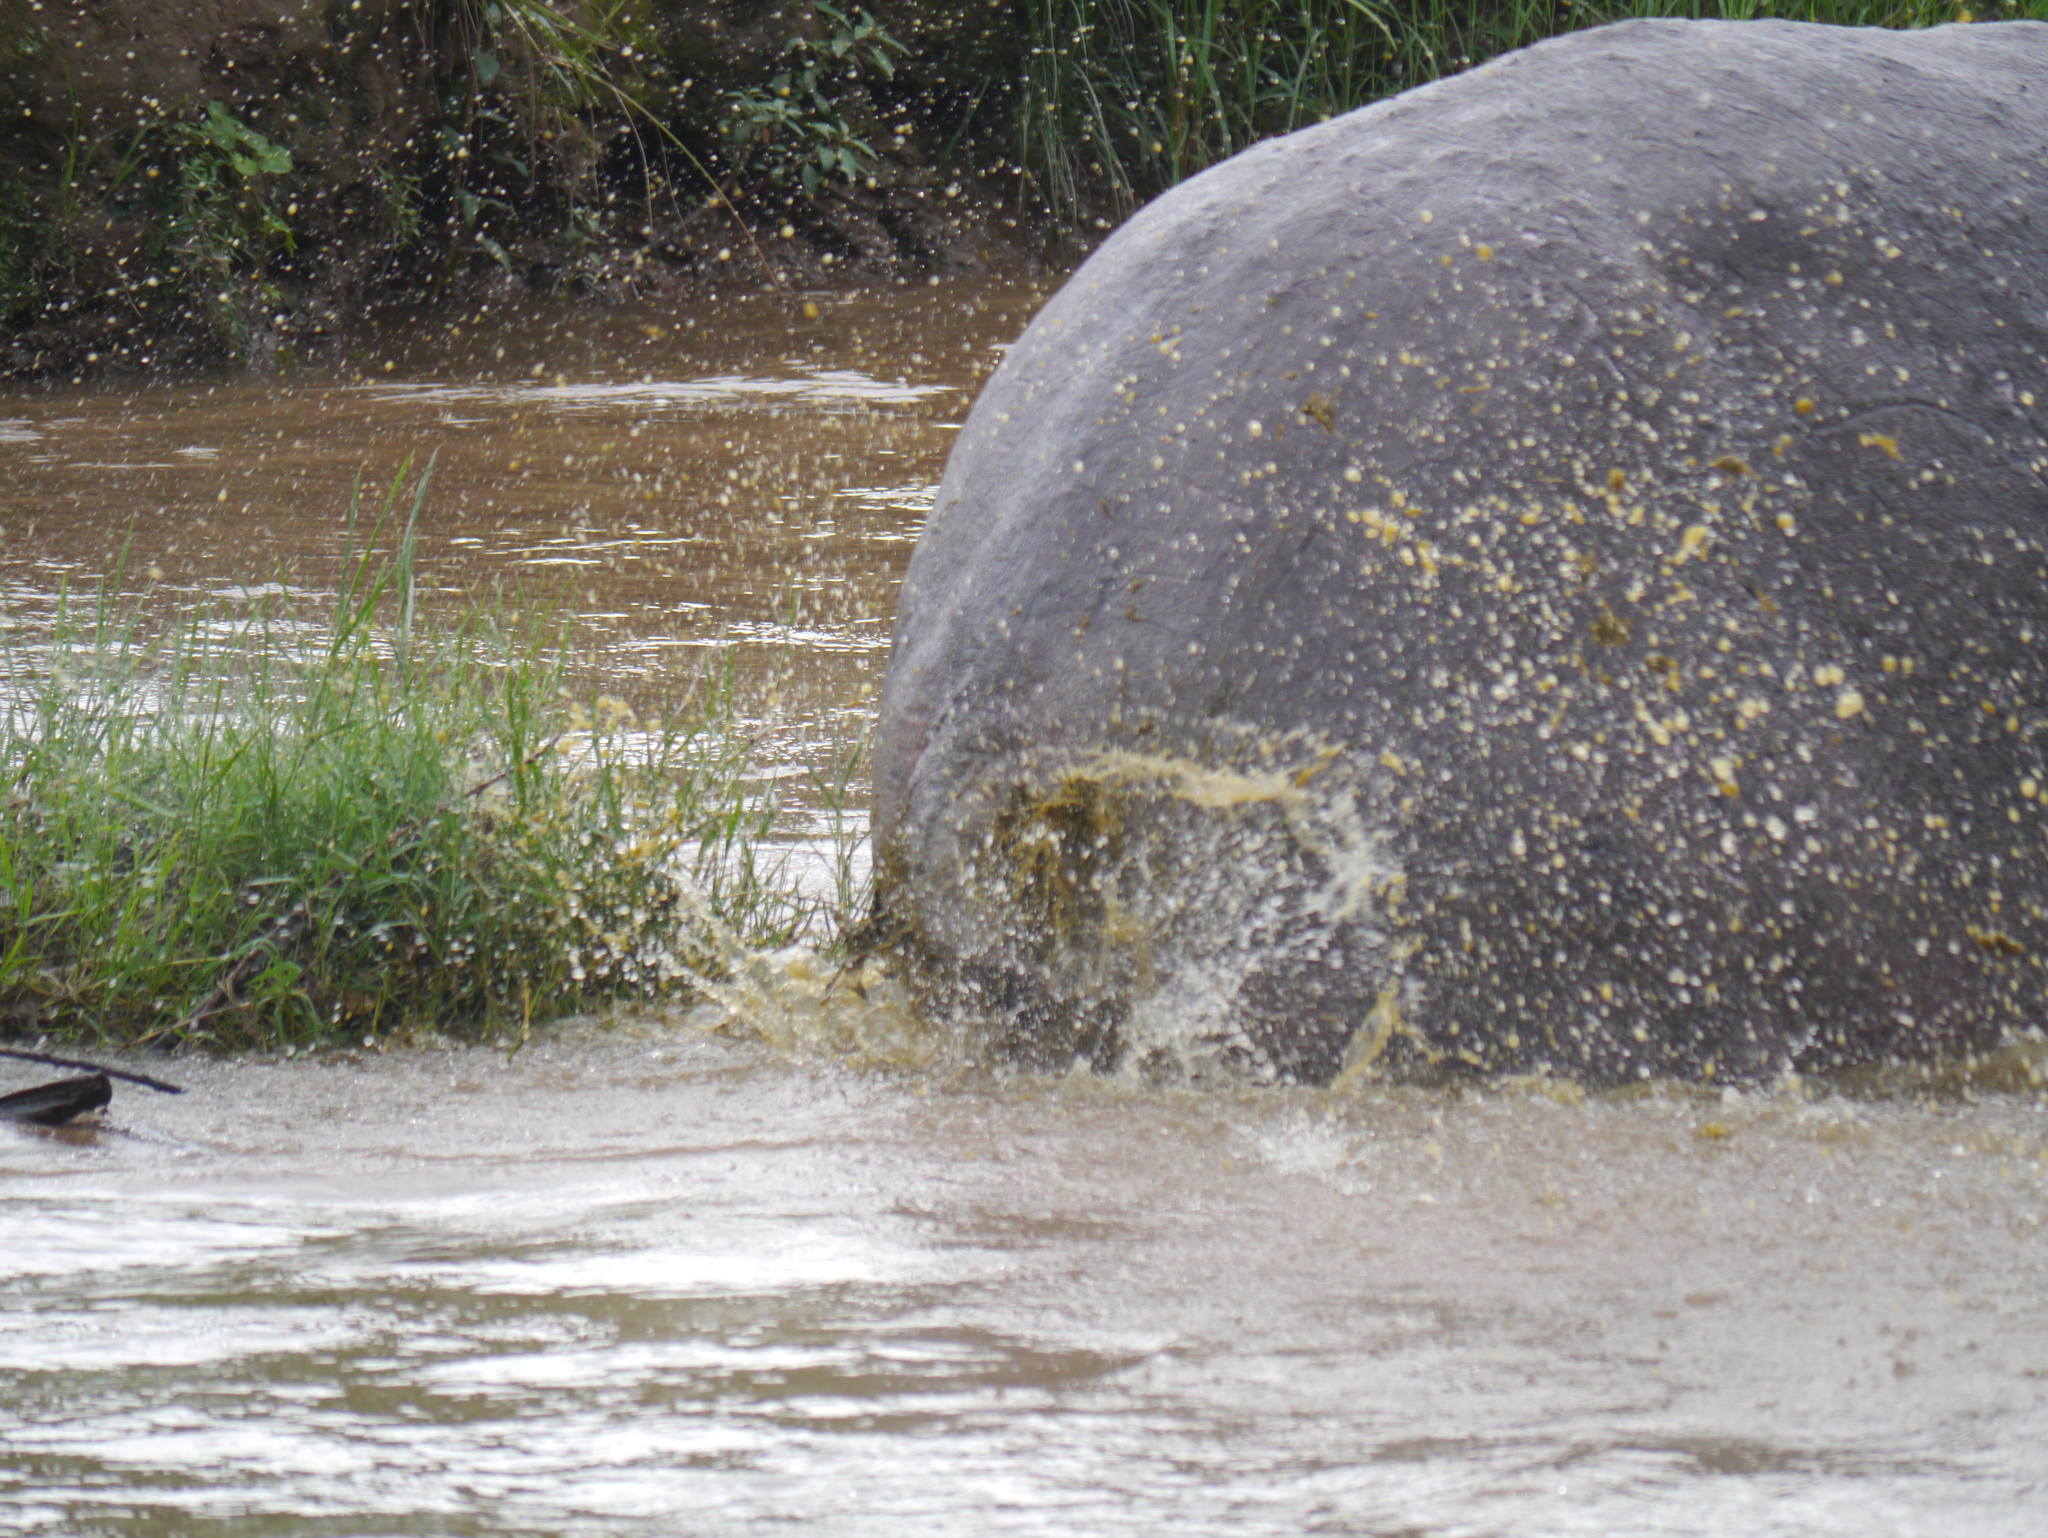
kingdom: Animalia
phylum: Chordata
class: Mammalia
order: Artiodactyla
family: Hippopotamidae
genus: Hippopotamus
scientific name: Hippopotamus amphibius
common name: Common hippopotamus
